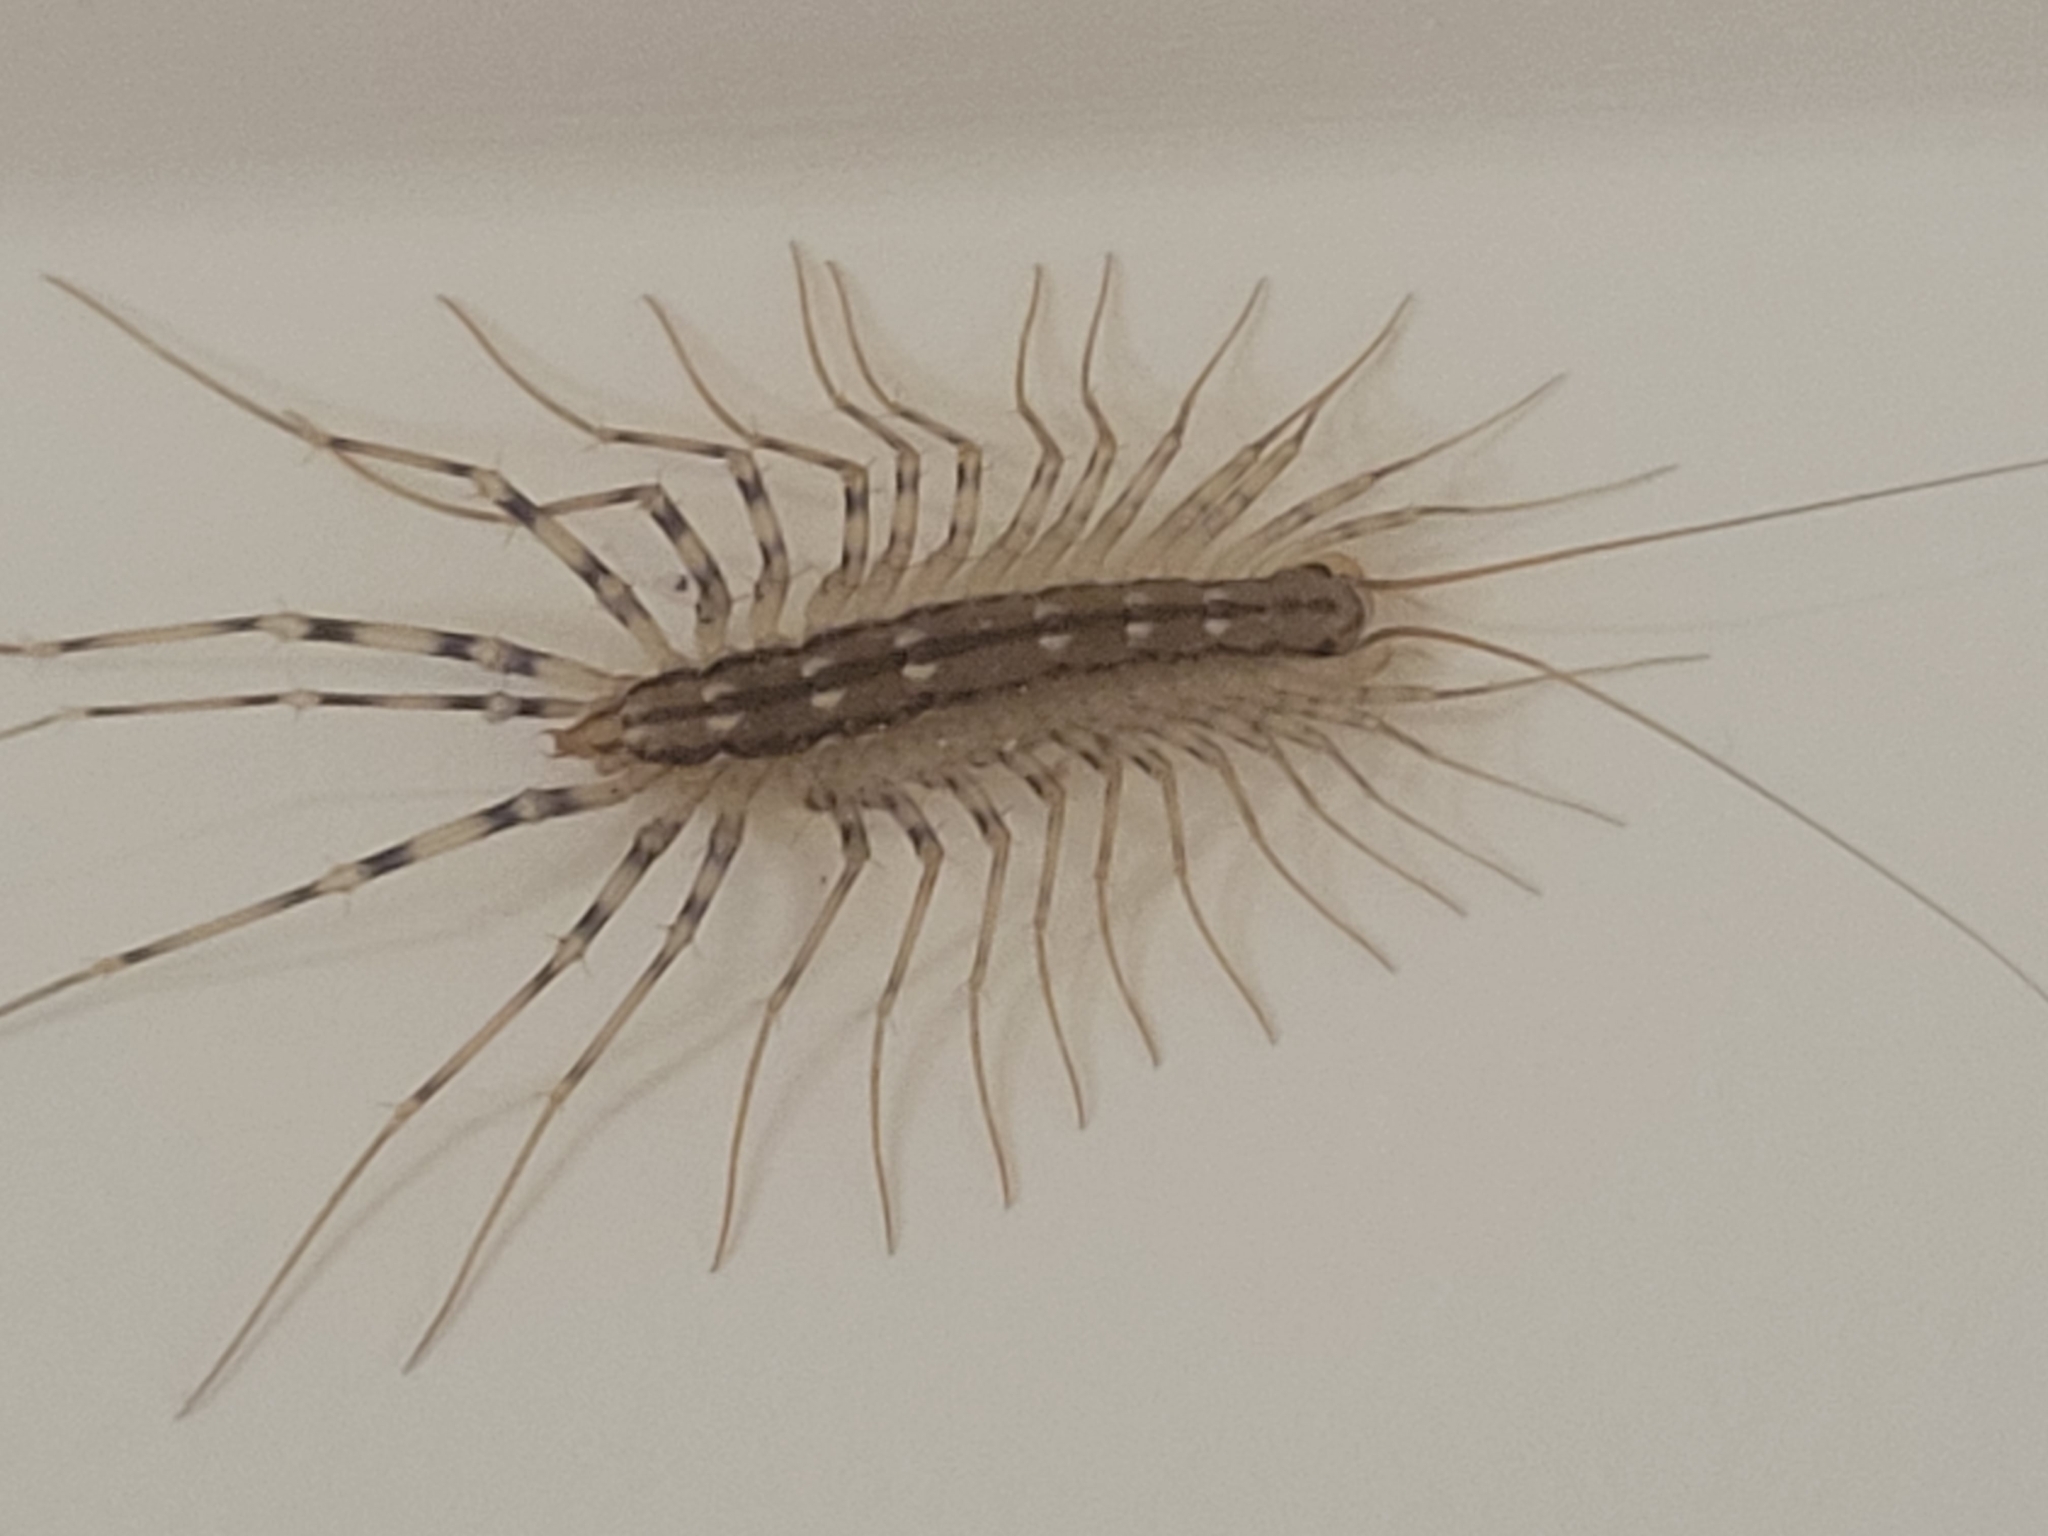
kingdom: Animalia
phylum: Arthropoda
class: Chilopoda
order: Scutigeromorpha
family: Scutigeridae
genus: Scutigera
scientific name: Scutigera coleoptrata
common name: House centipede
